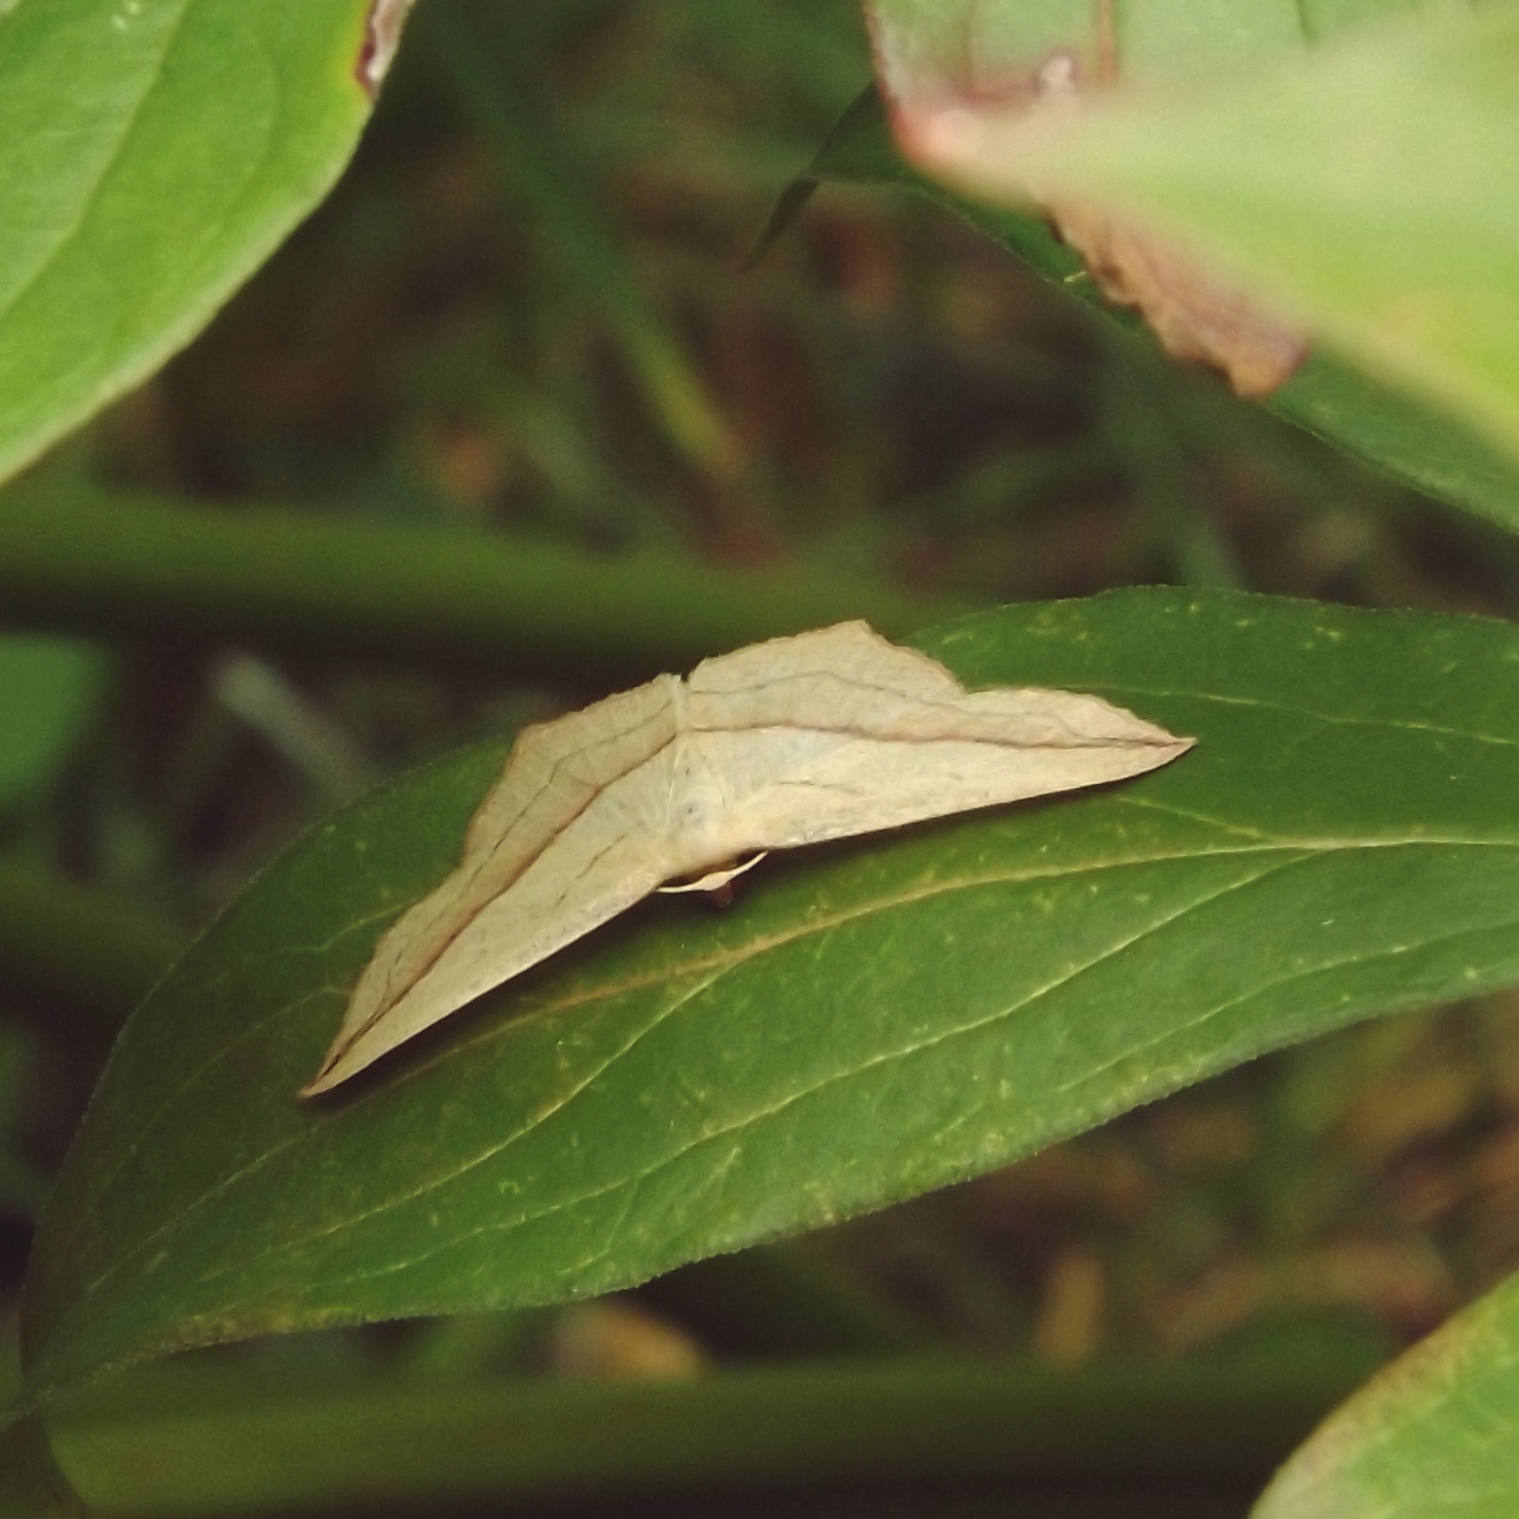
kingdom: Animalia
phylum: Arthropoda
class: Insecta
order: Lepidoptera
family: Geometridae
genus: Timandra
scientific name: Timandra comae
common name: Blood-vein
